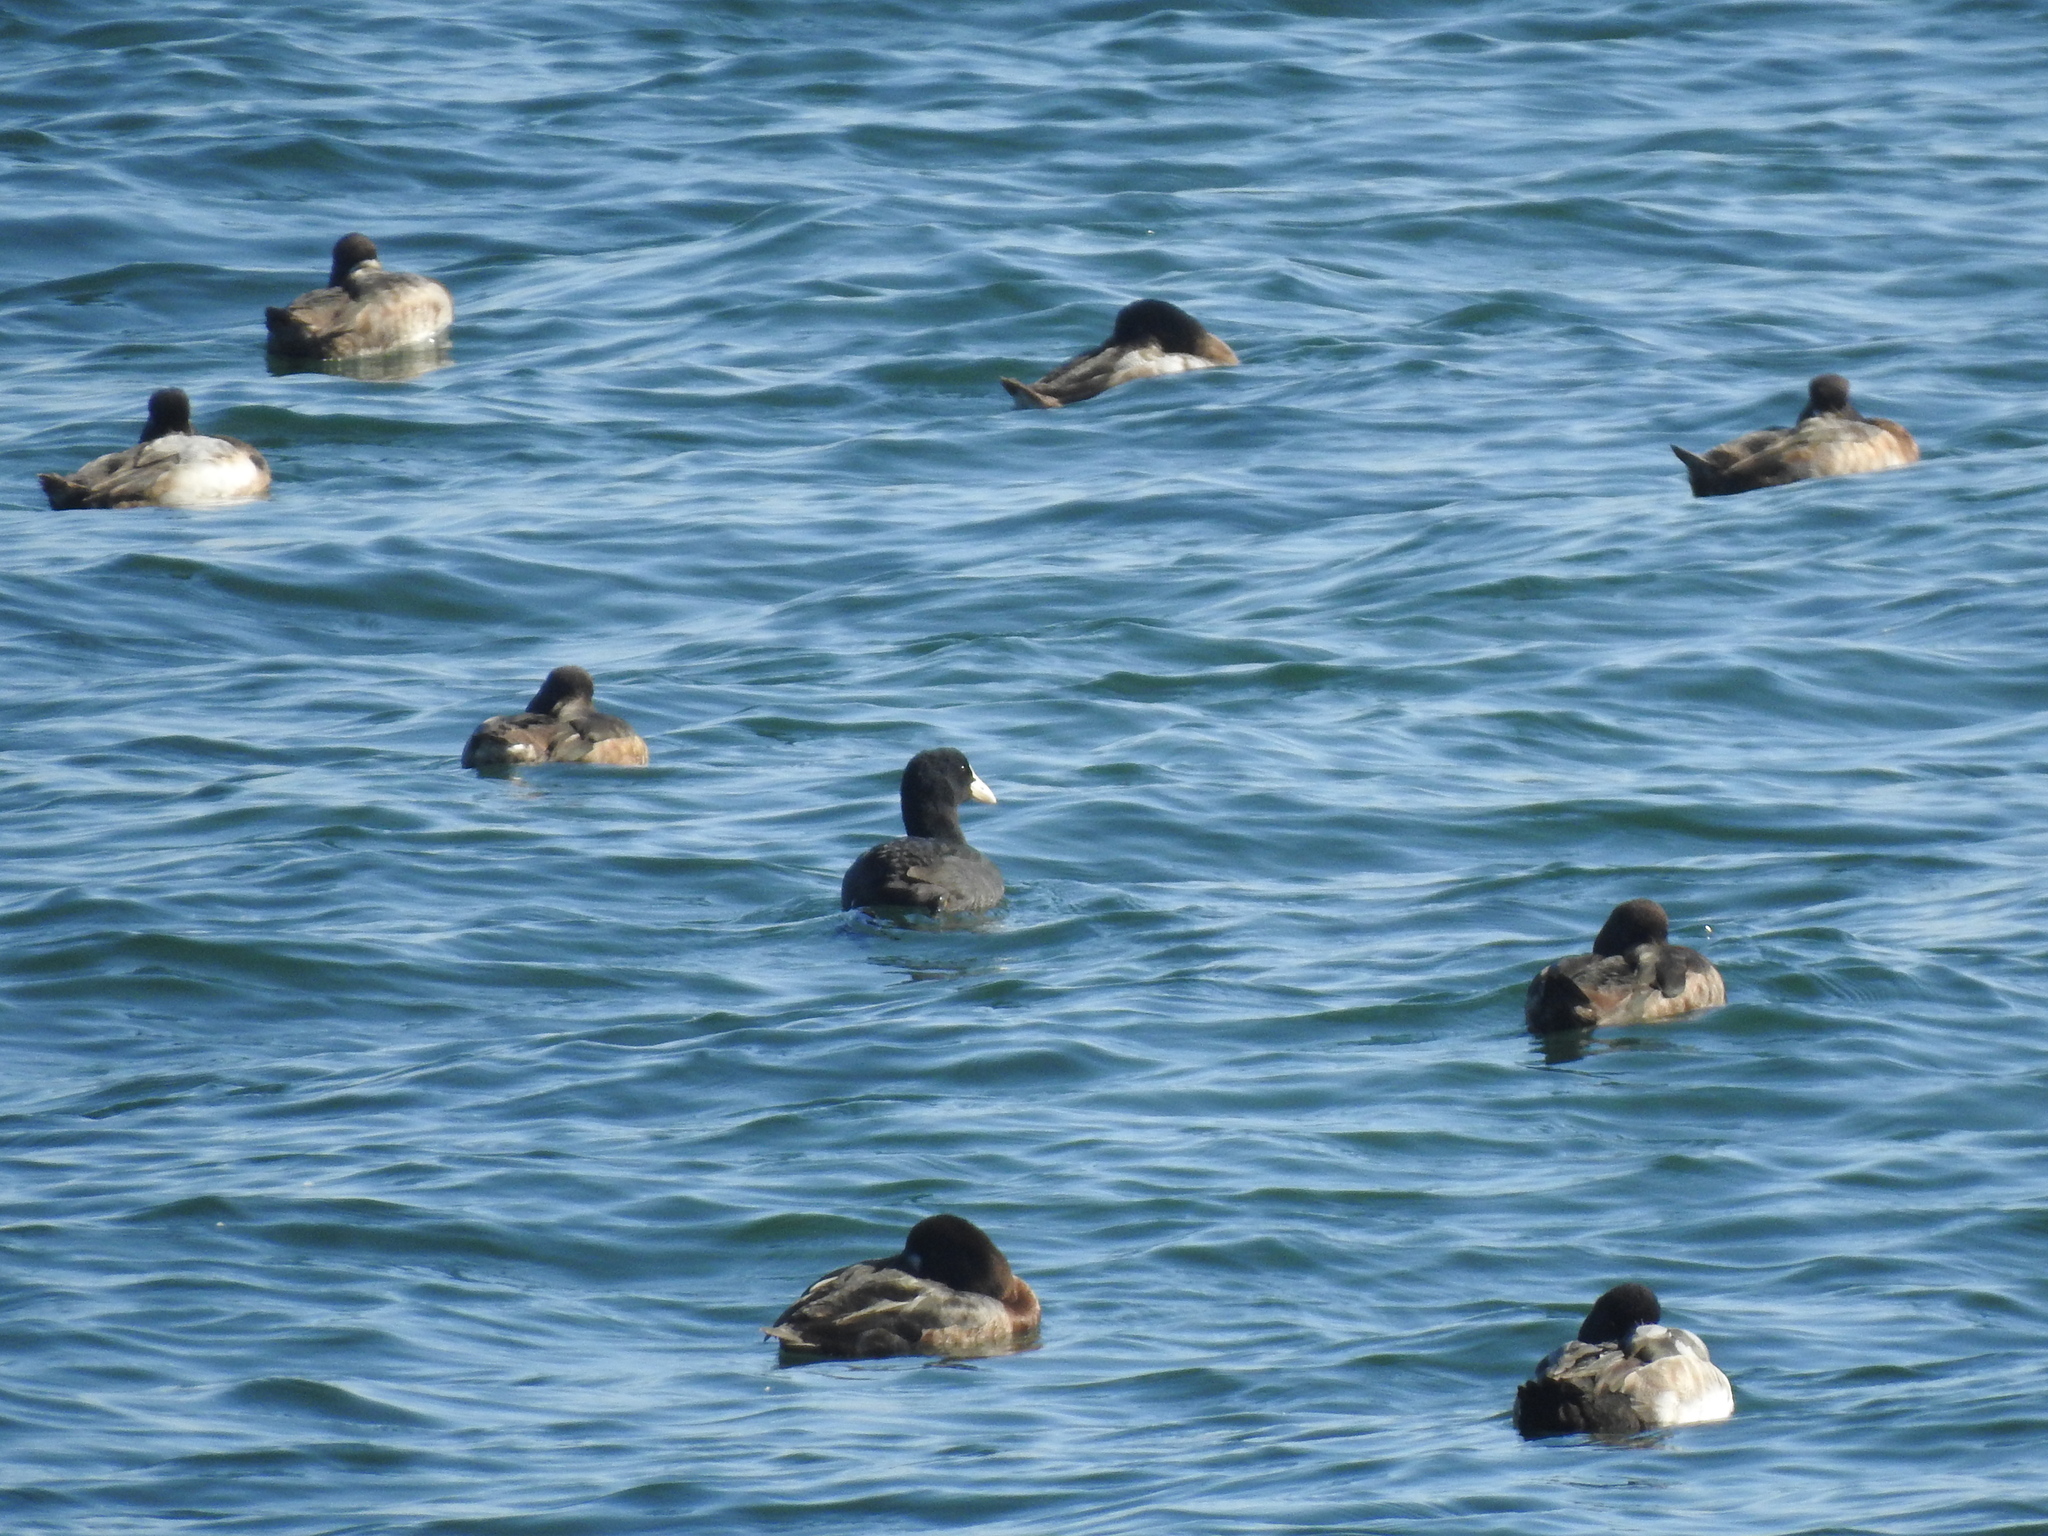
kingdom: Animalia
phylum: Chordata
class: Aves
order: Gruiformes
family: Rallidae
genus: Fulica
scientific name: Fulica atra
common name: Eurasian coot
